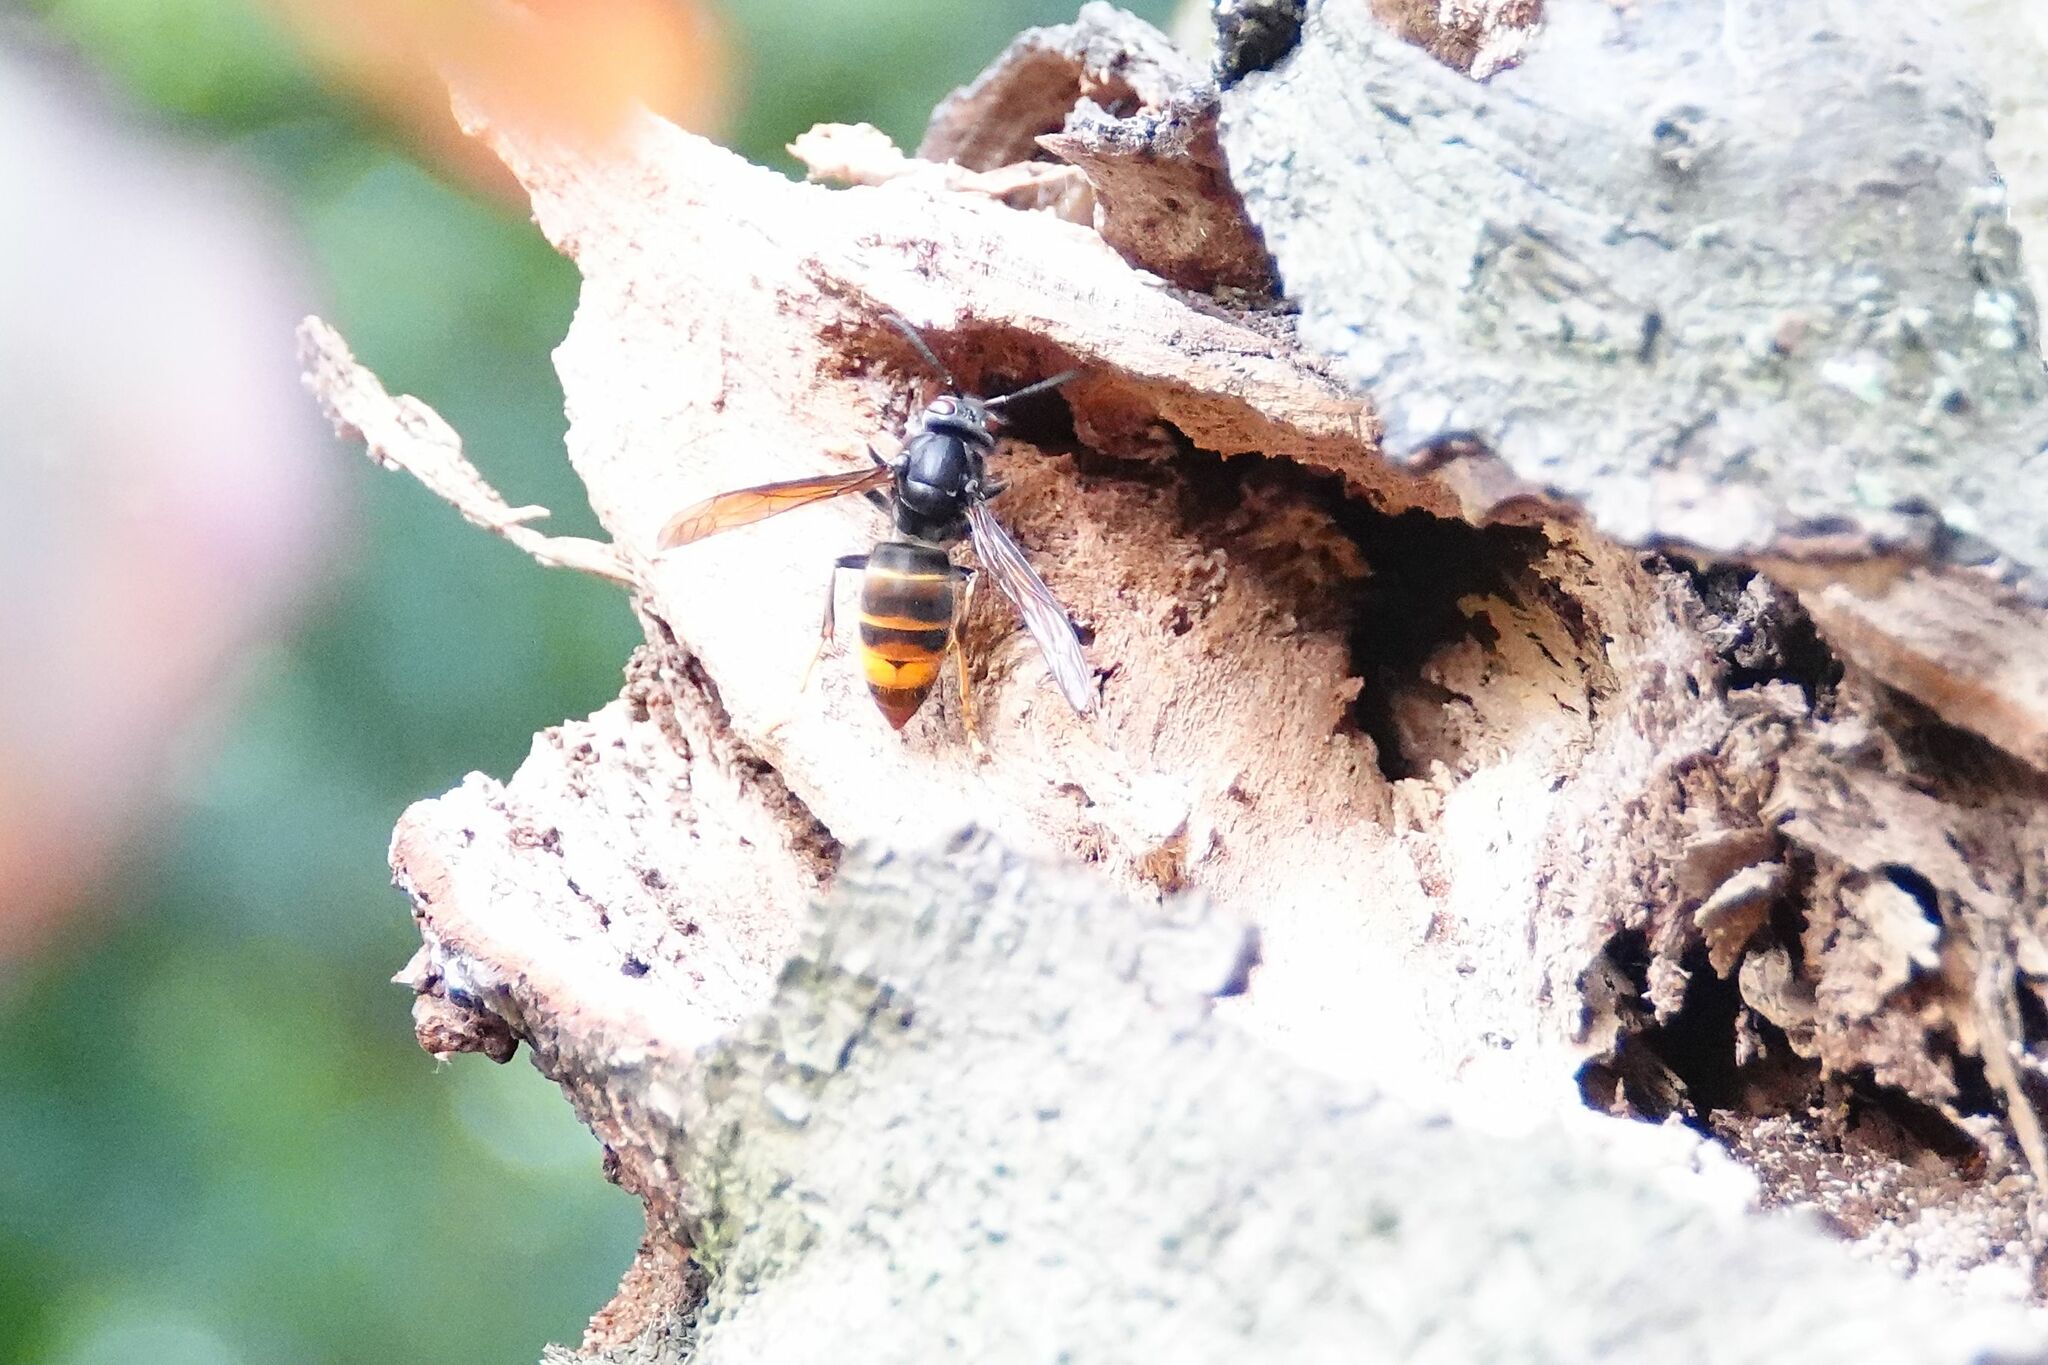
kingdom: Animalia
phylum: Arthropoda
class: Insecta
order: Hymenoptera
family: Vespidae
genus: Vespa
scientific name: Vespa velutina
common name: Asian hornet
